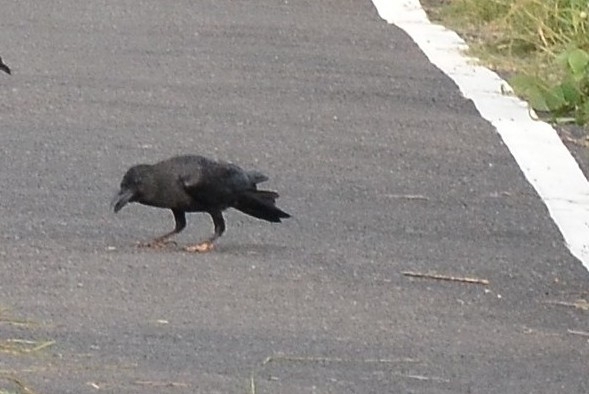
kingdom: Animalia
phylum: Chordata
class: Aves
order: Passeriformes
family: Corvidae
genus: Corvus
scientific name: Corvus macrorhynchos
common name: Large-billed crow
